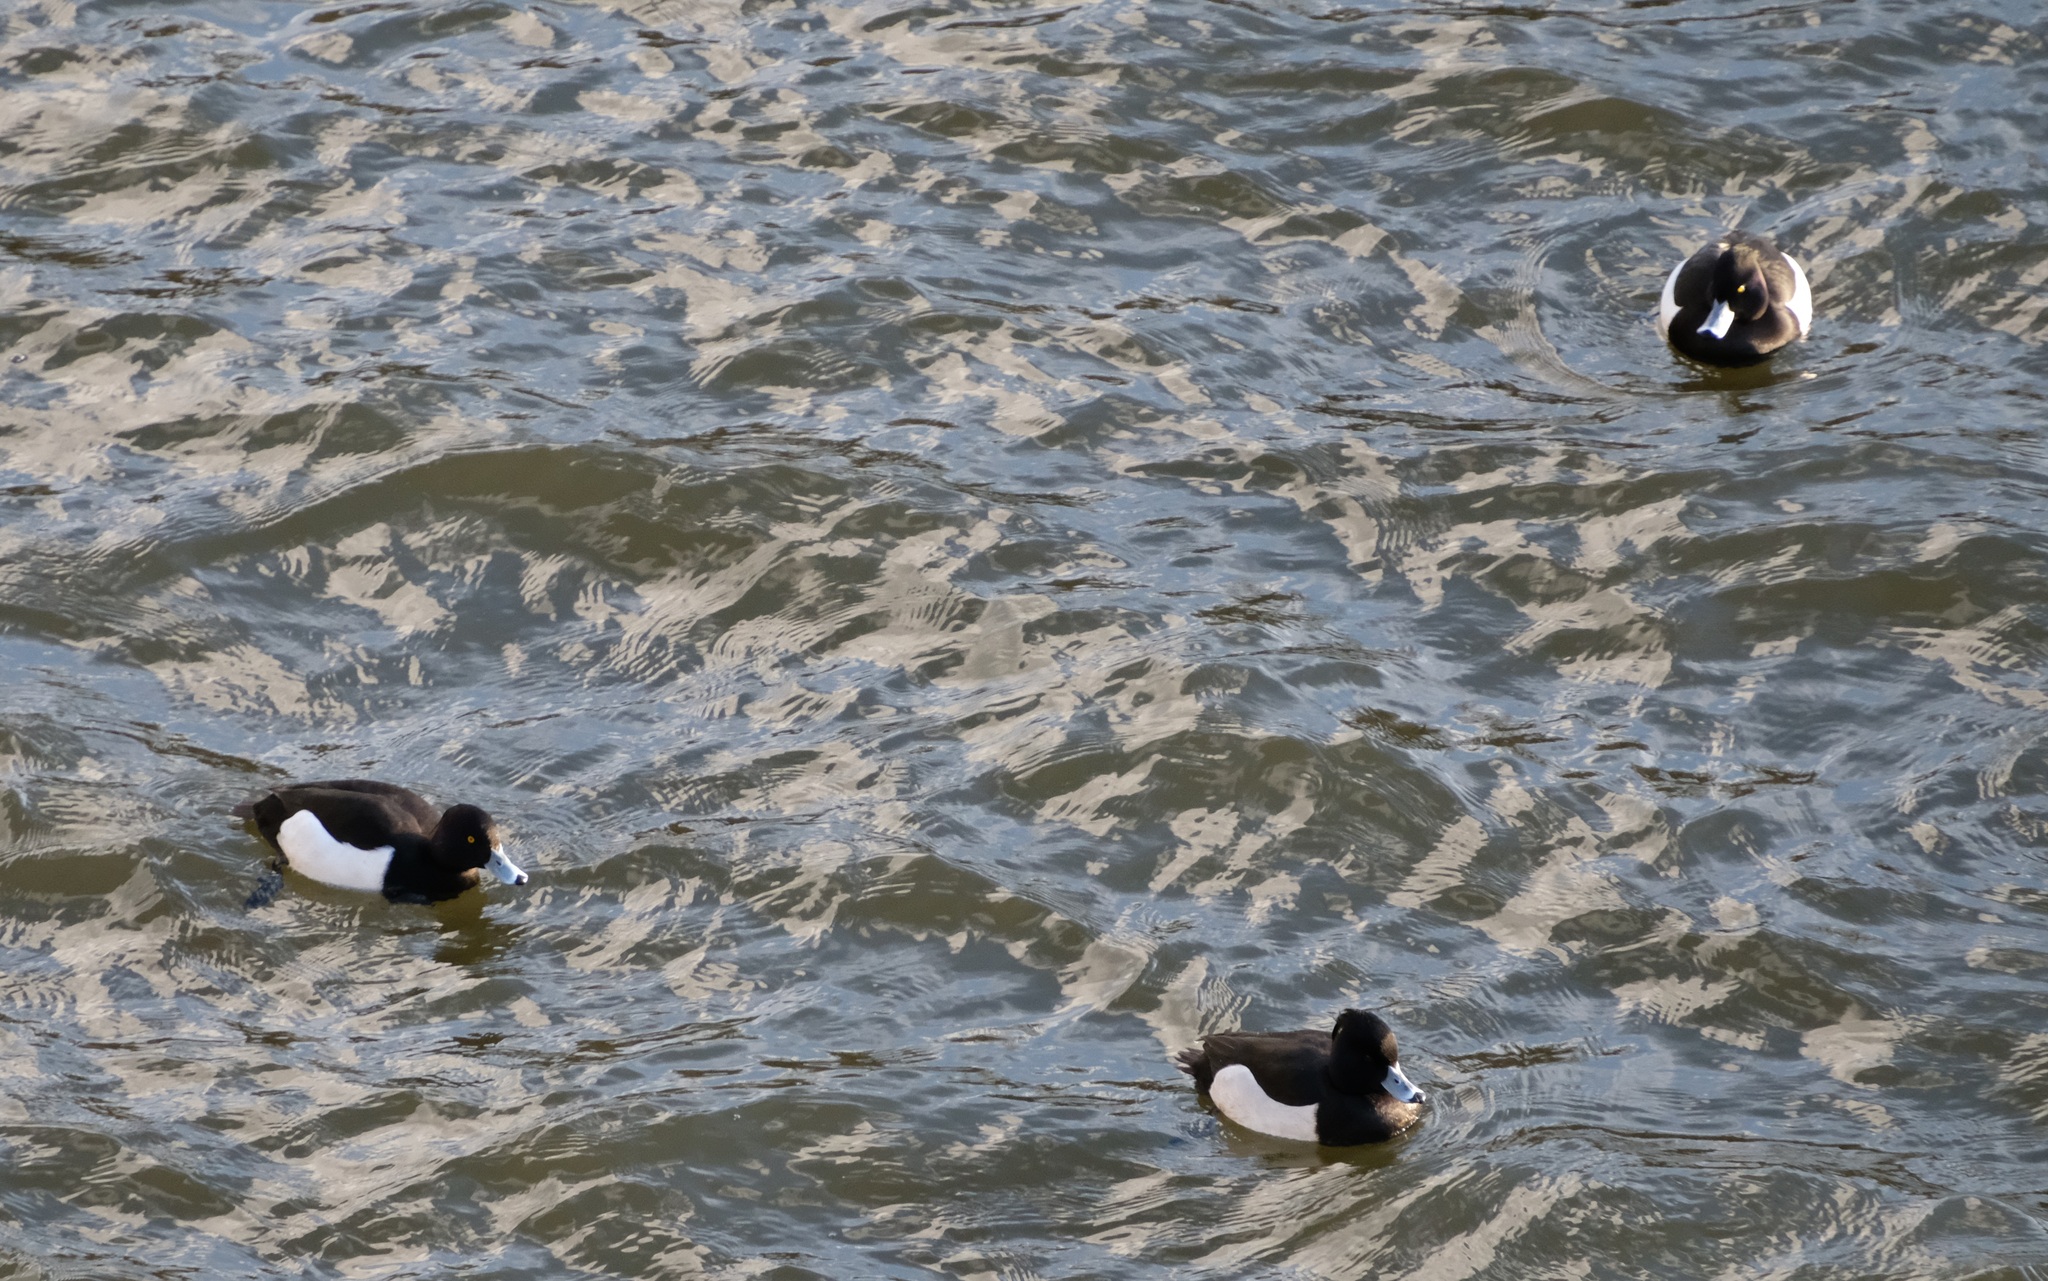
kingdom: Animalia
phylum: Chordata
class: Aves
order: Anseriformes
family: Anatidae
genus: Aythya
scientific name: Aythya fuligula
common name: Tufted duck
